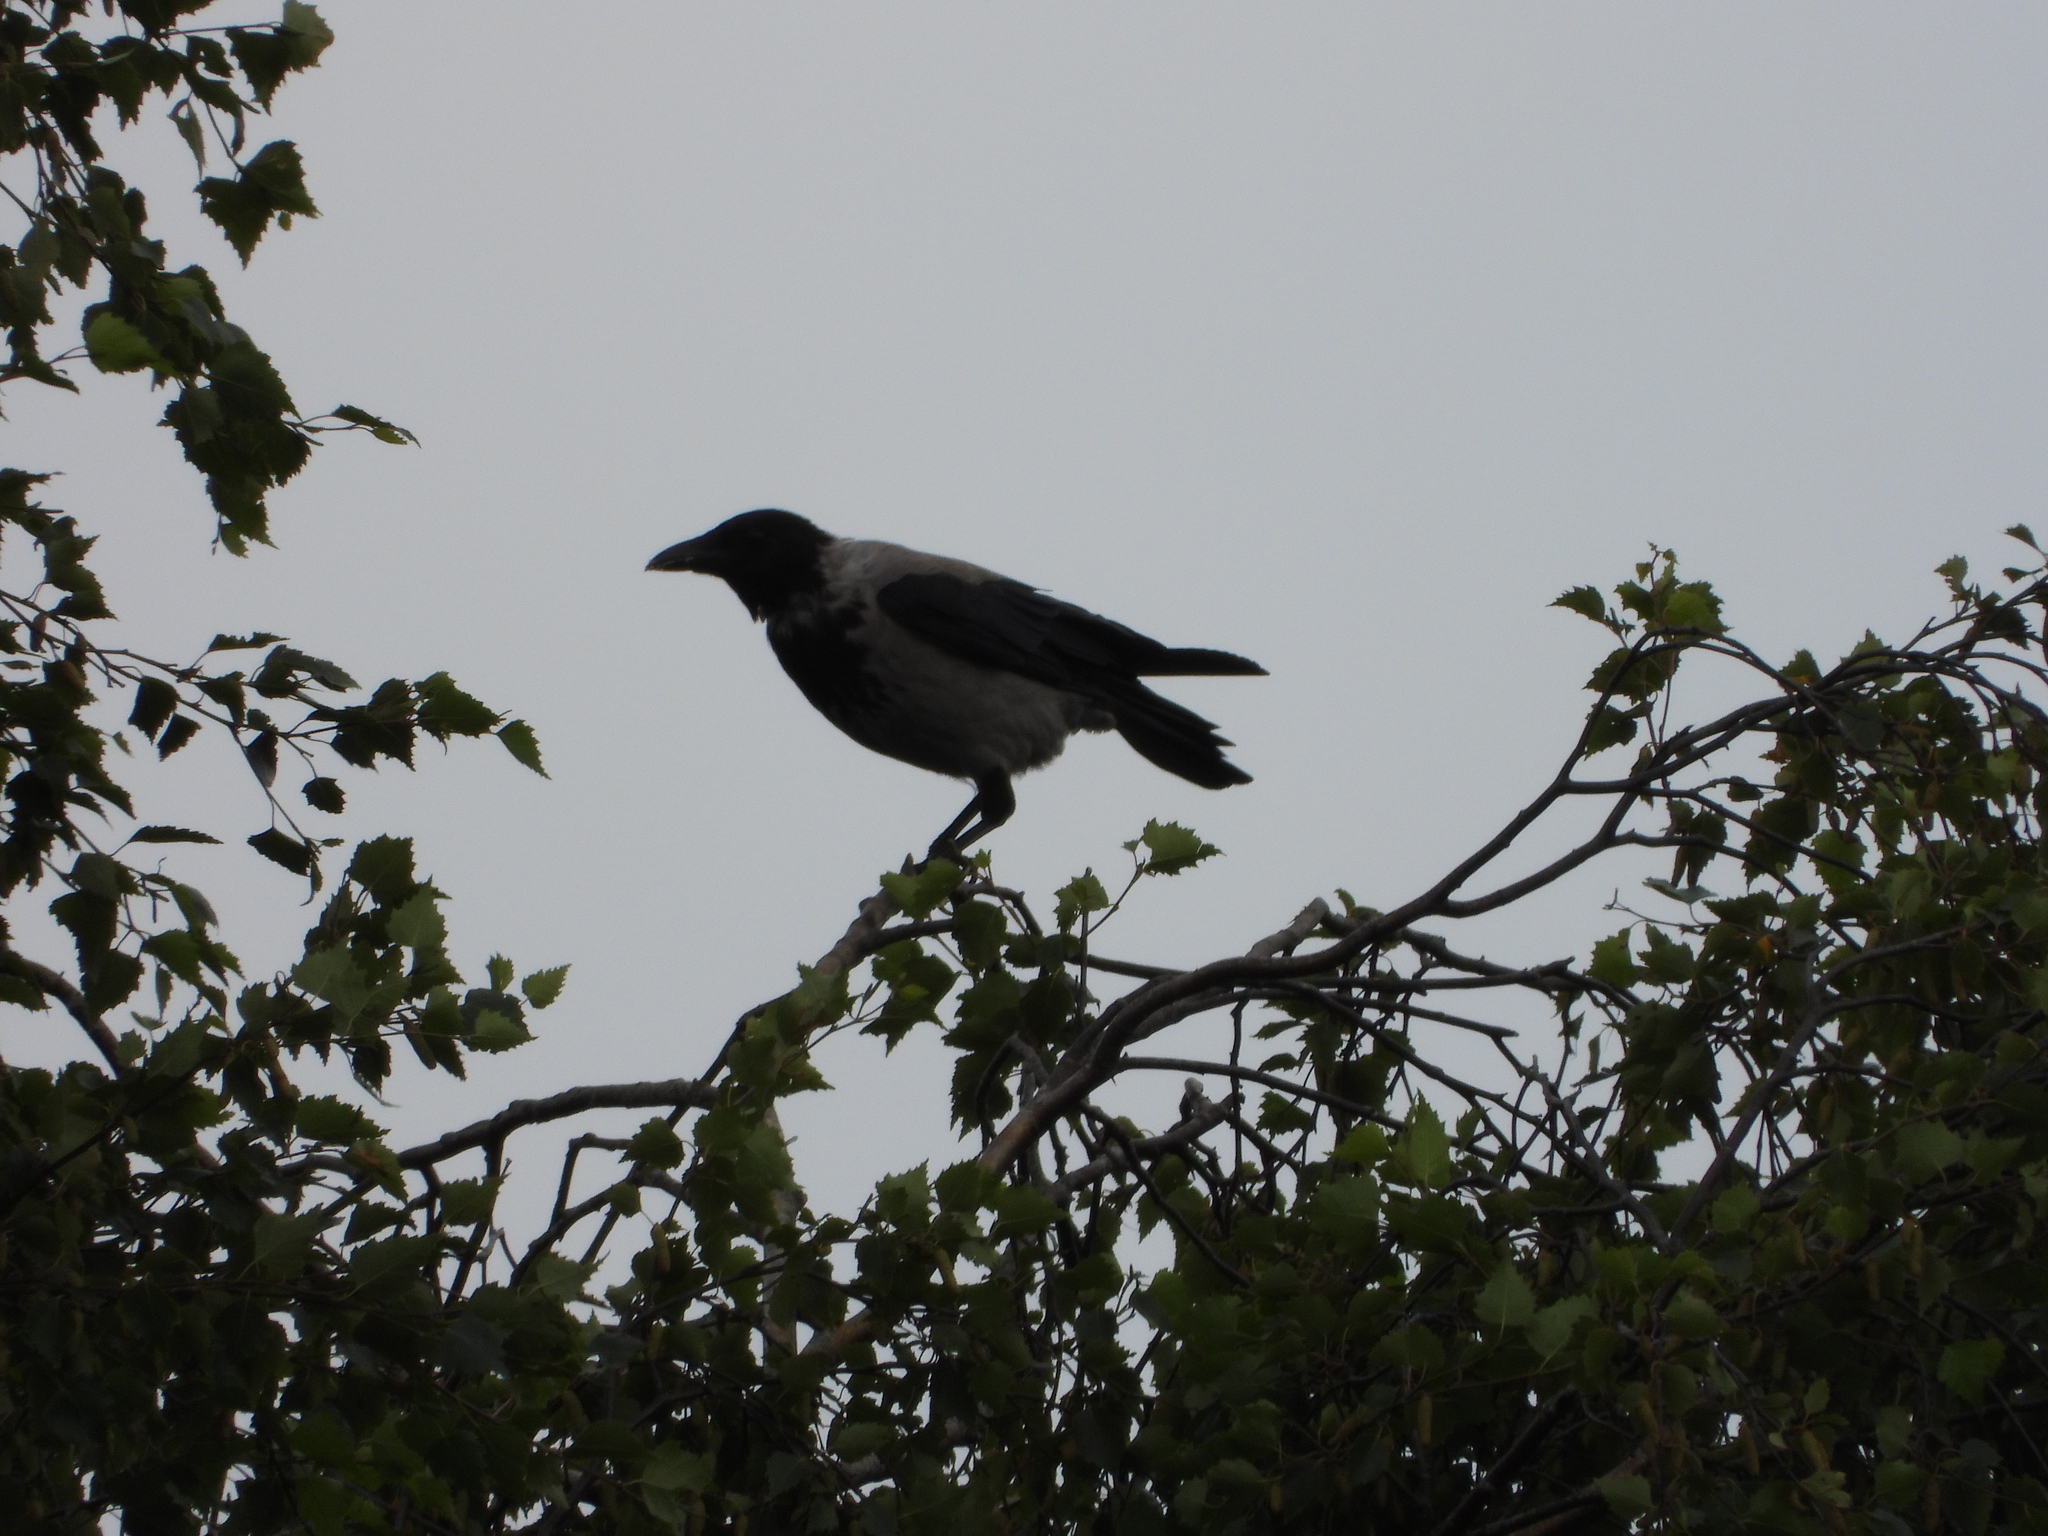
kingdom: Animalia
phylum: Chordata
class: Aves
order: Passeriformes
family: Corvidae
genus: Corvus
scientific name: Corvus cornix
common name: Hooded crow
